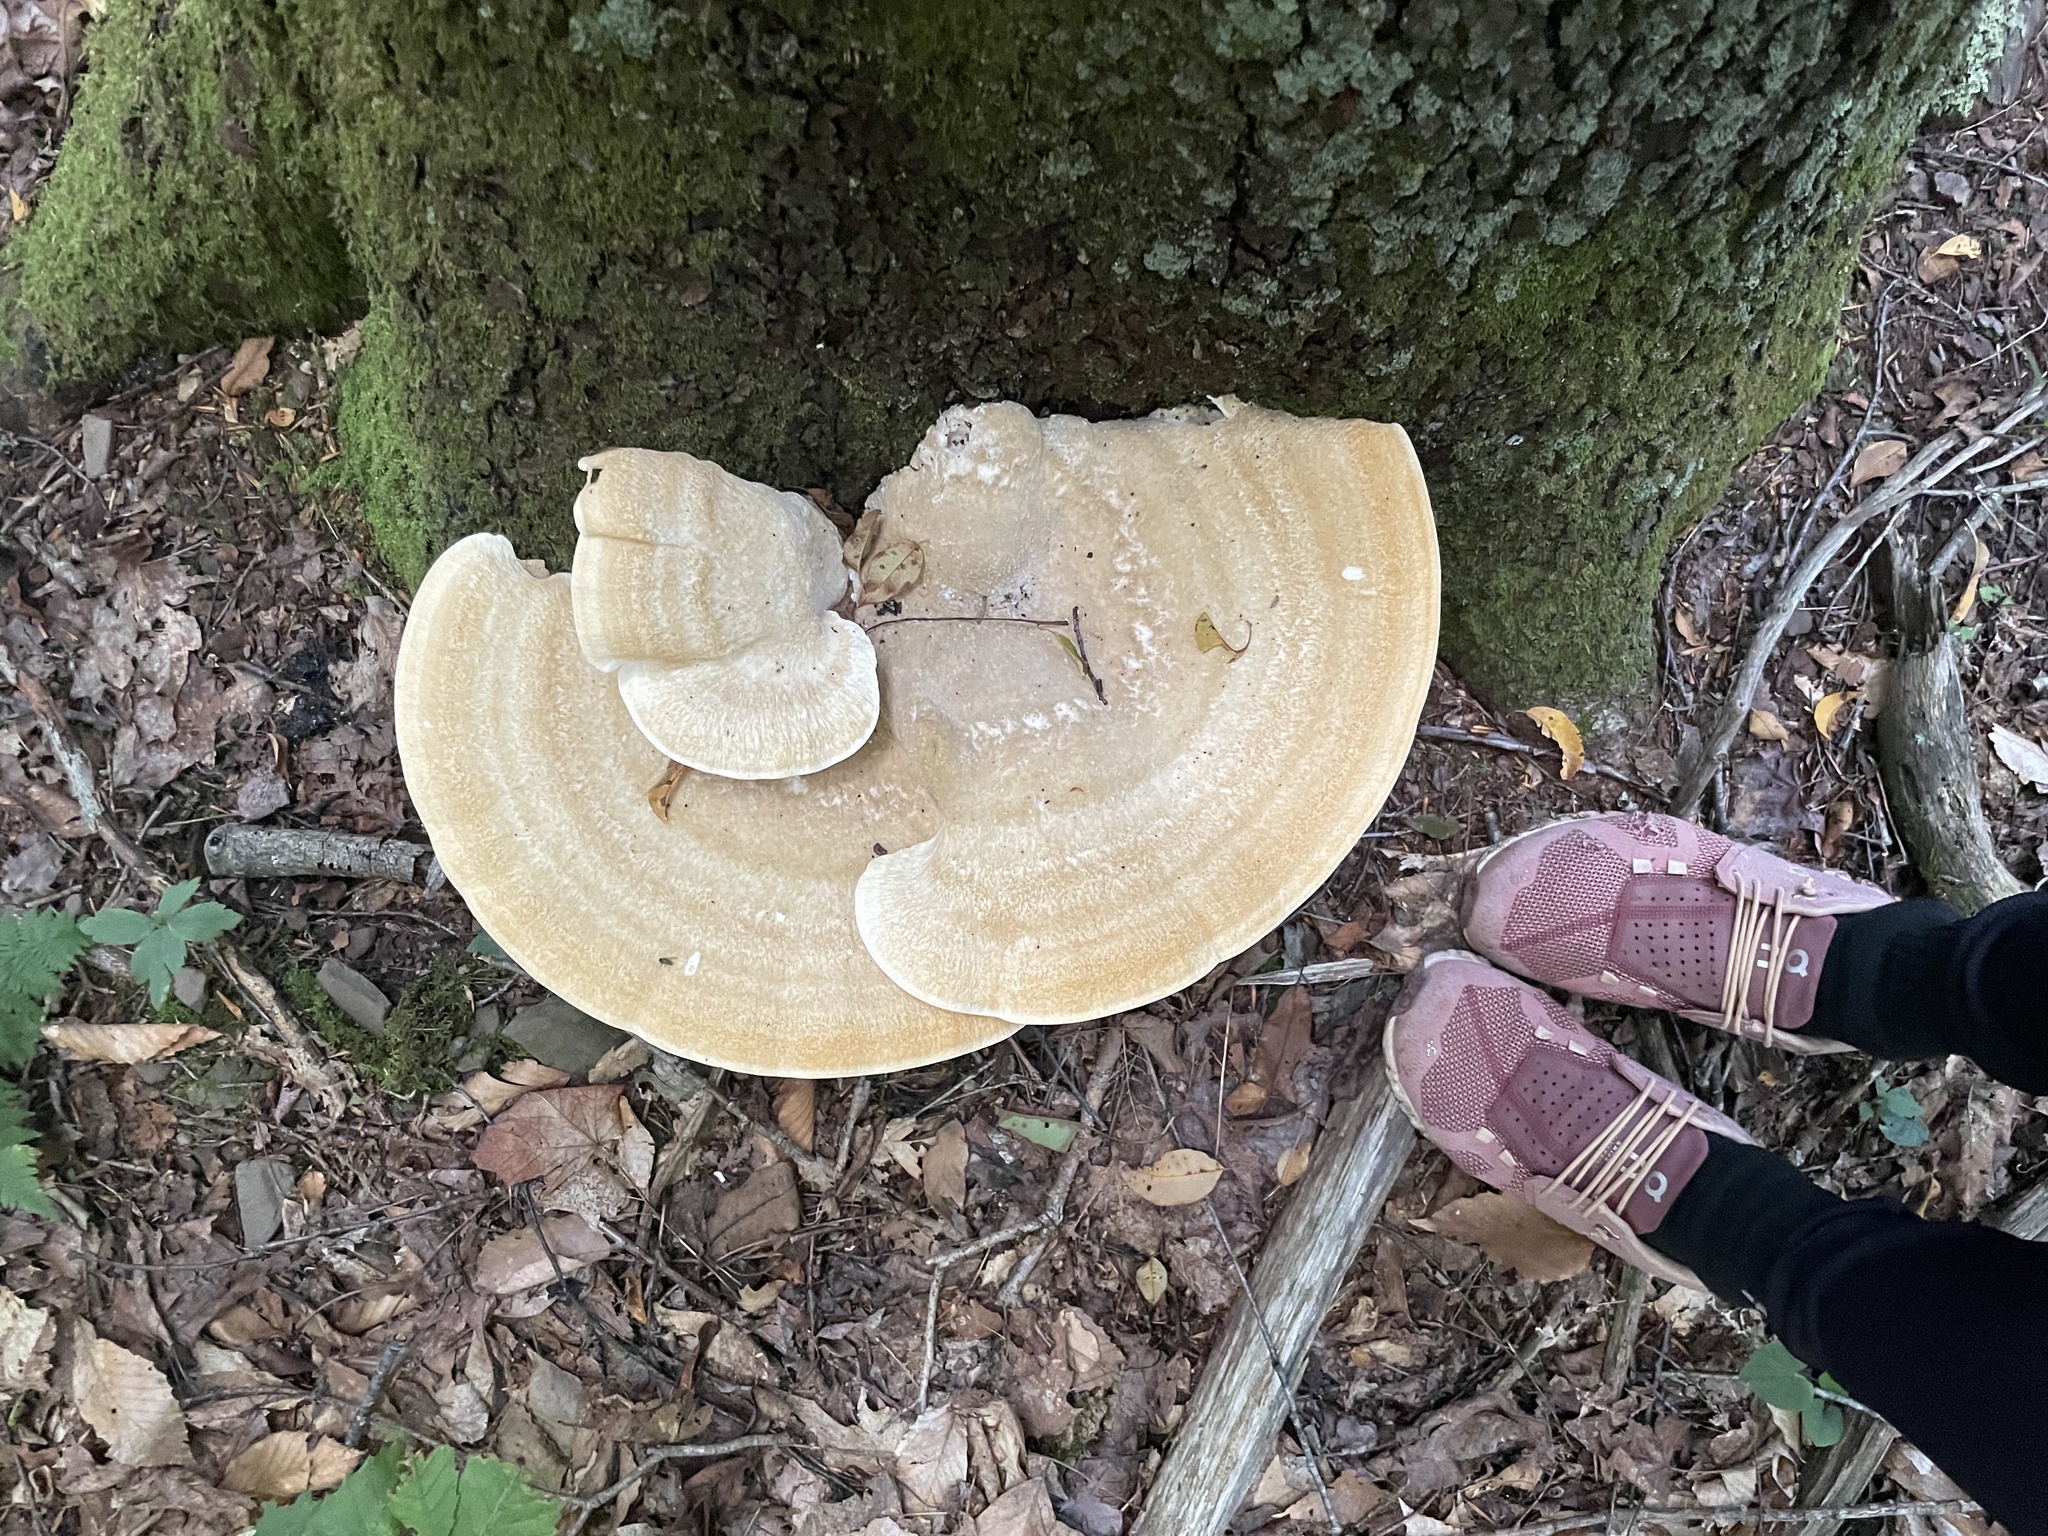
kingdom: Fungi
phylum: Basidiomycota
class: Agaricomycetes
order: Russulales
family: Bondarzewiaceae
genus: Bondarzewia
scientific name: Bondarzewia berkeleyi
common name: Berkeley's polypore
